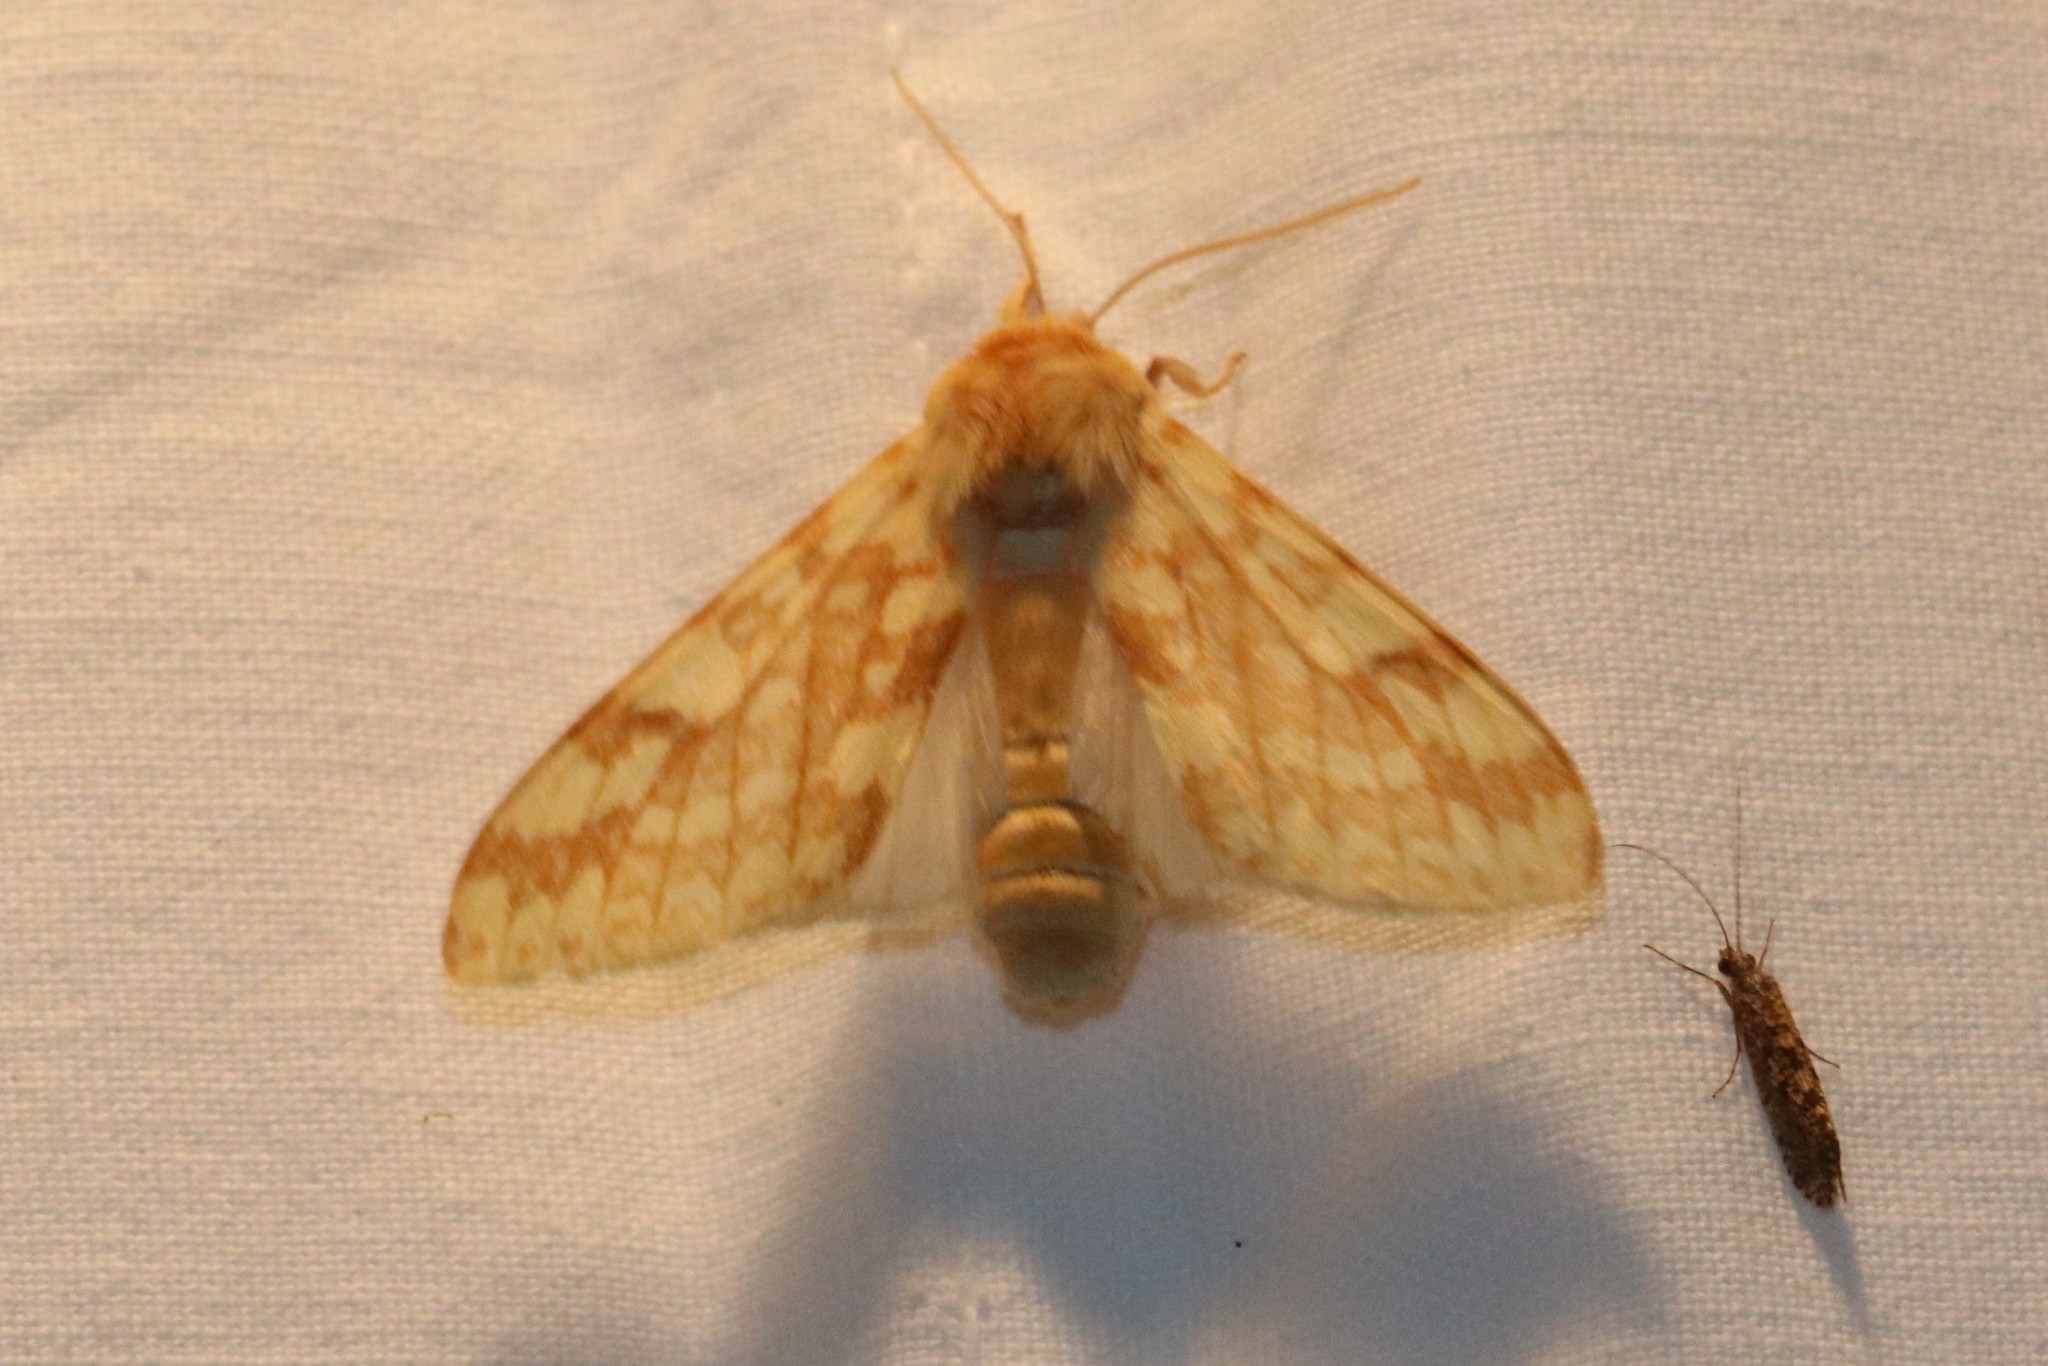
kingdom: Animalia
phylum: Arthropoda
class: Insecta
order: Lepidoptera
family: Erebidae
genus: Lophocampa
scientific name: Lophocampa maculata
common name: Spotted tussock moth
